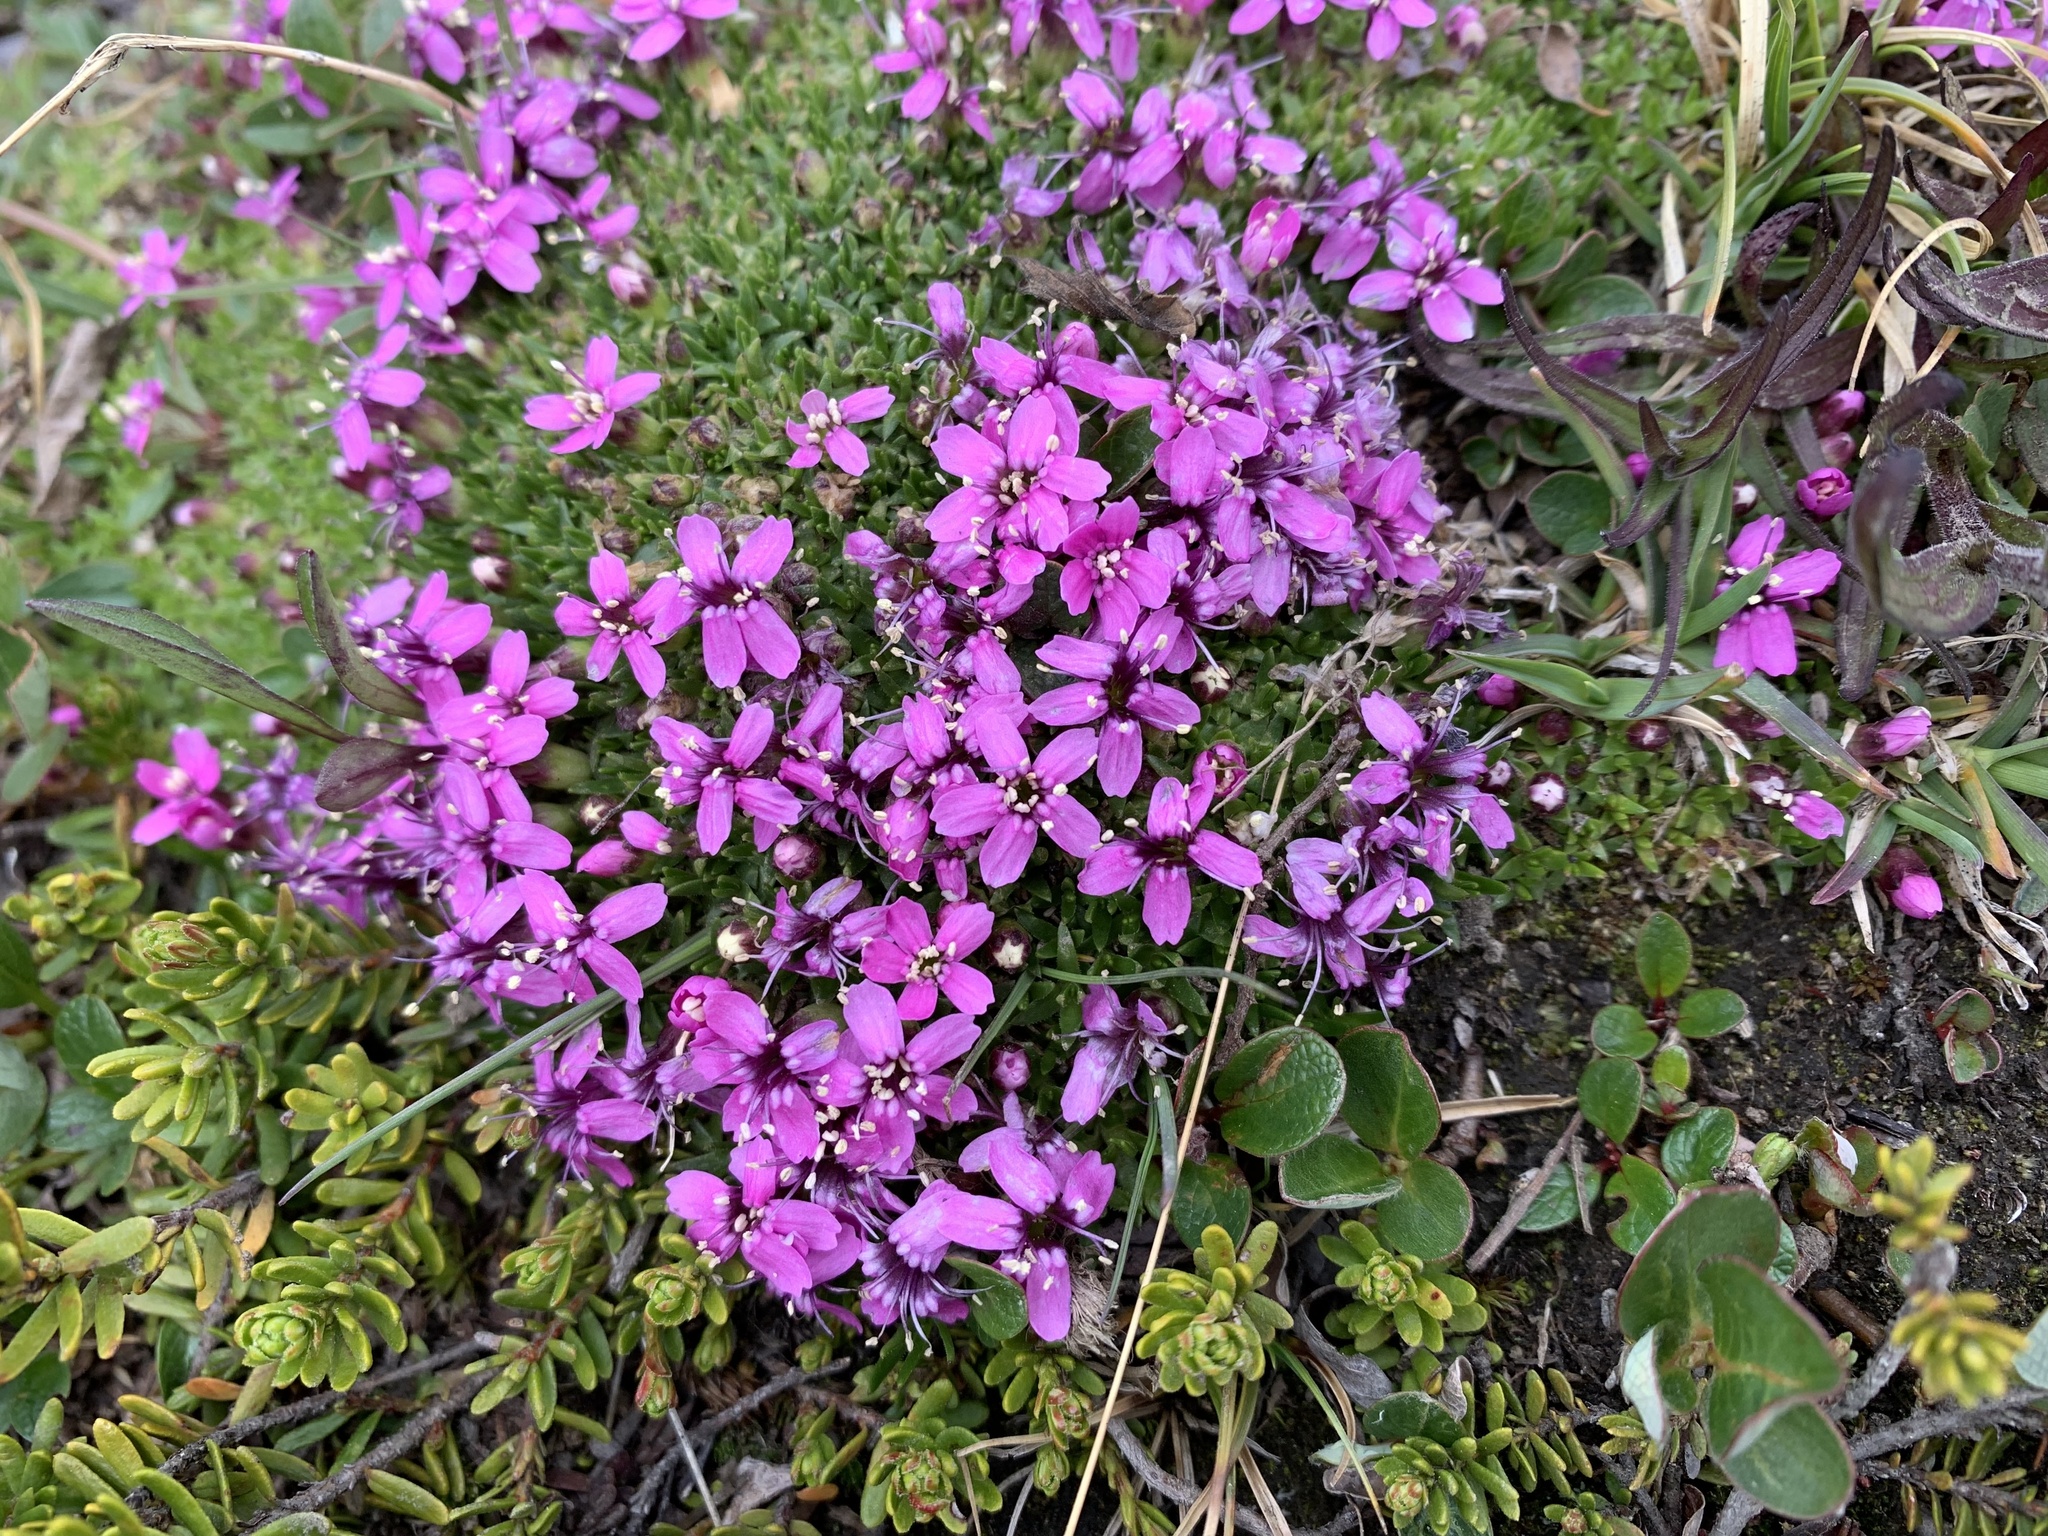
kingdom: Plantae
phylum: Tracheophyta
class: Magnoliopsida
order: Caryophyllales
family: Caryophyllaceae
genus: Silene
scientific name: Silene acaulis
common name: Moss campion
